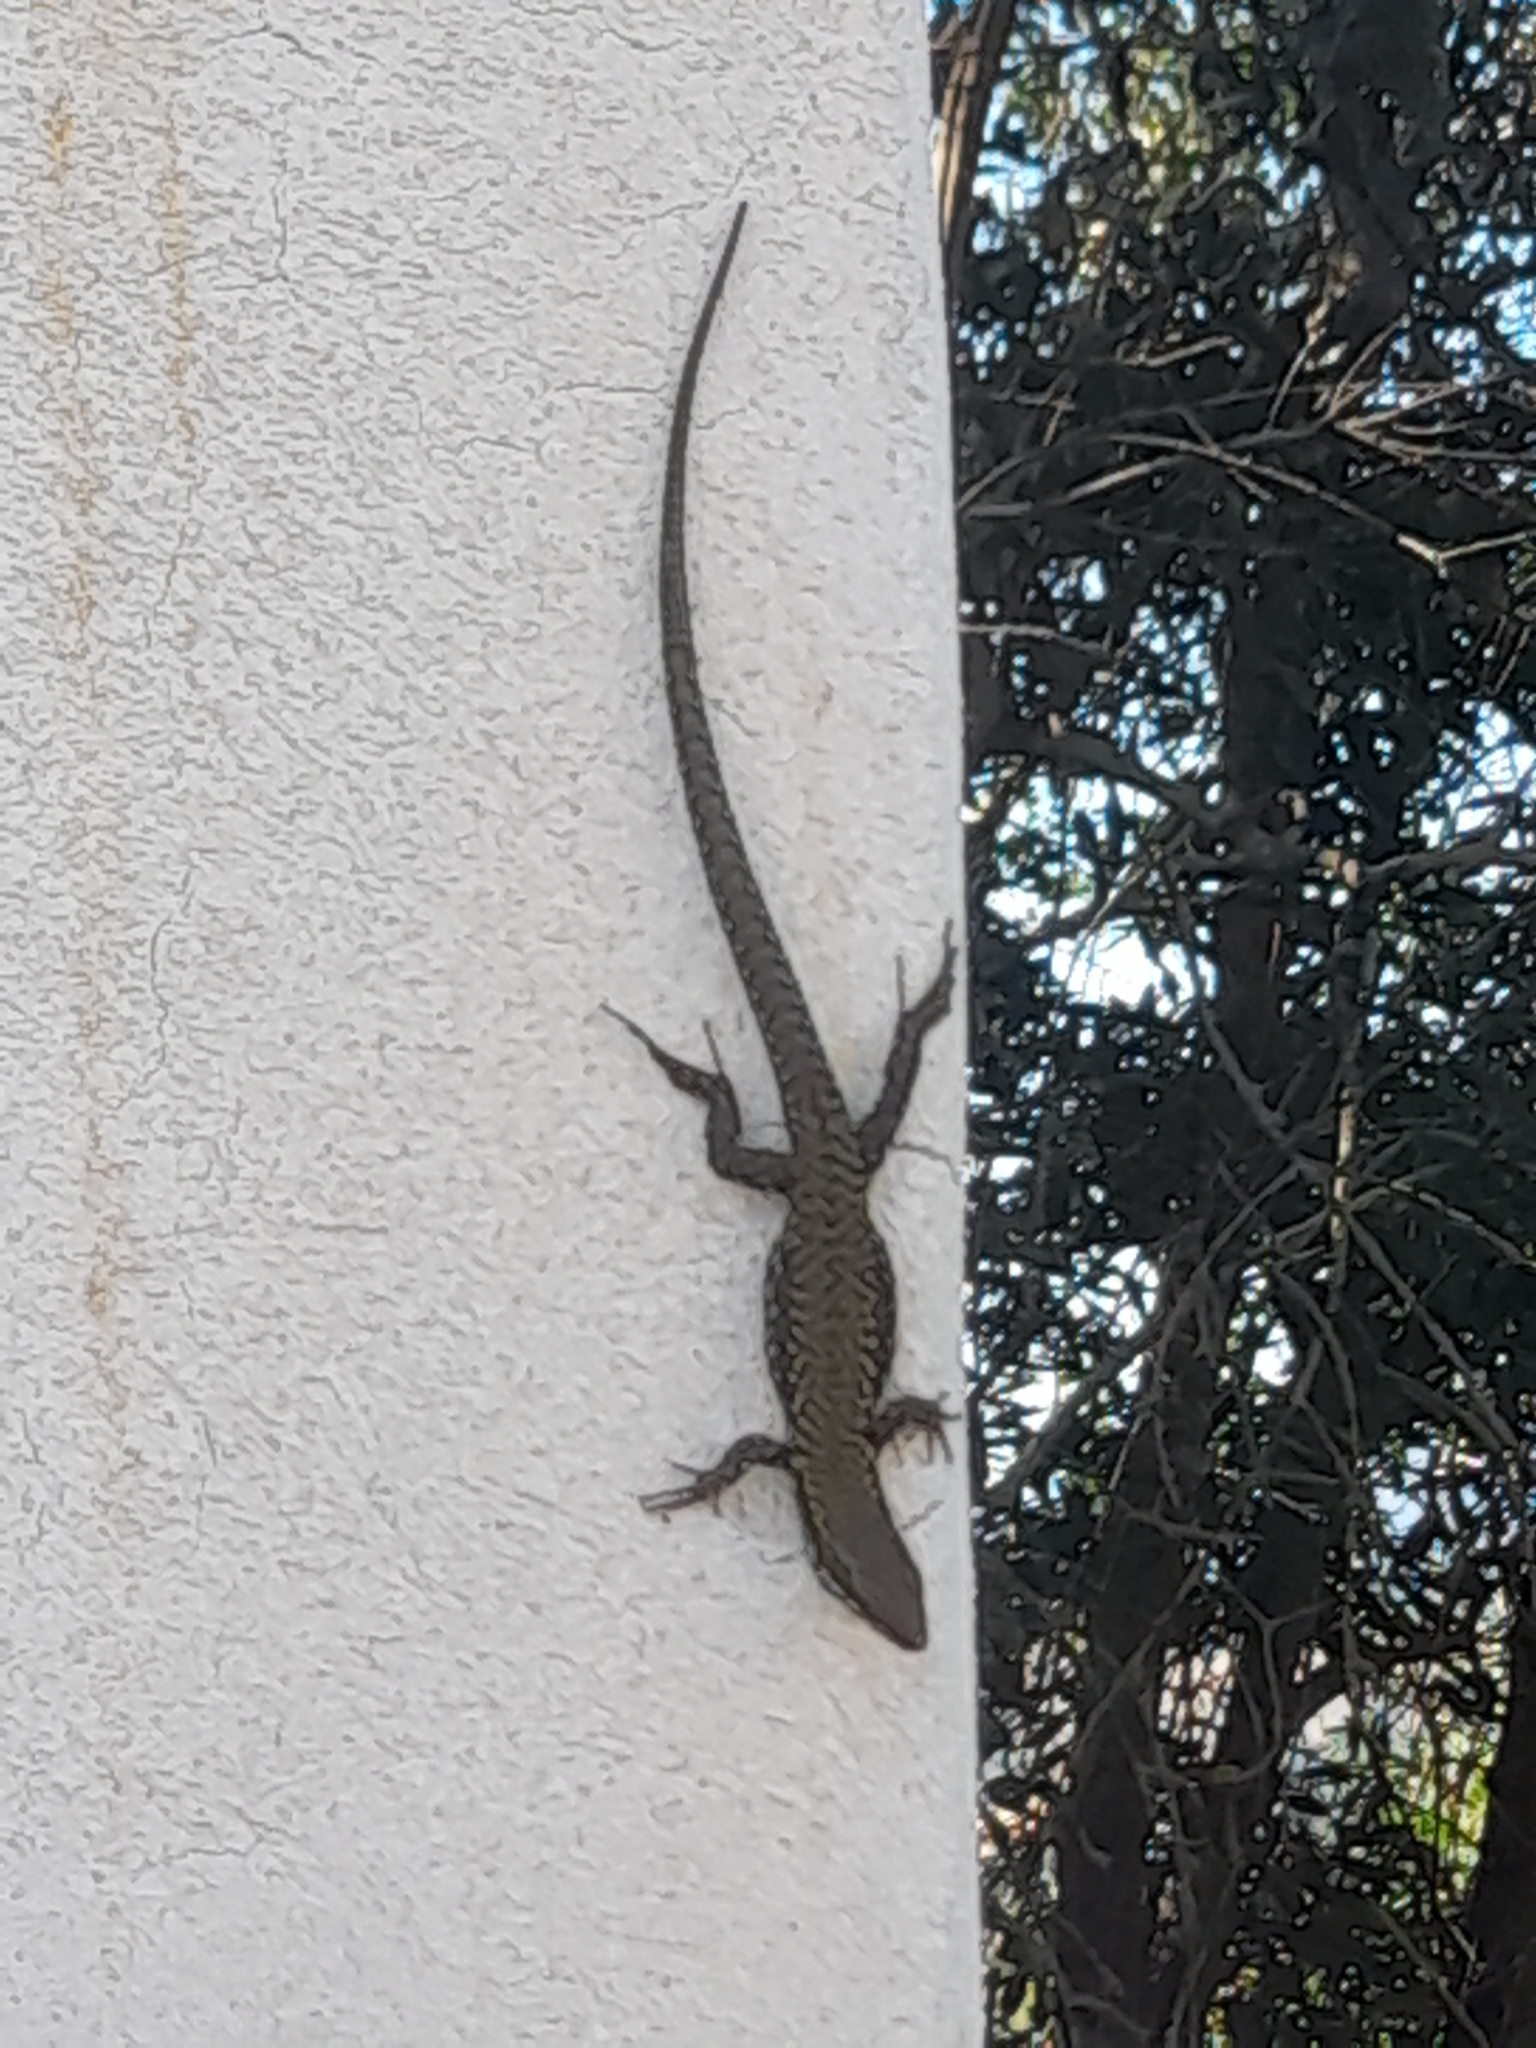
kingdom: Animalia
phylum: Chordata
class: Squamata
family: Lacertidae
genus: Podarcis
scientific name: Podarcis muralis
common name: Common wall lizard
